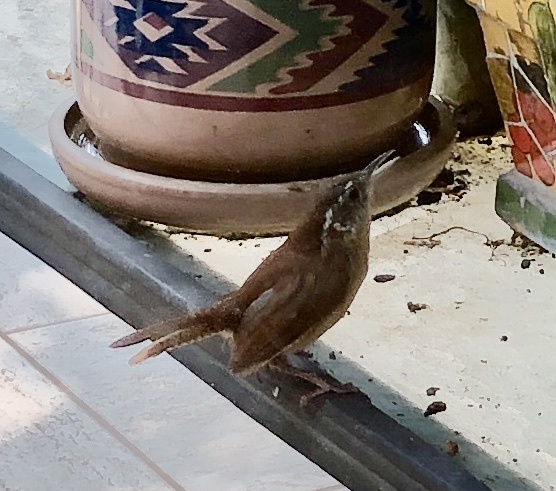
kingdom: Animalia
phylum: Chordata
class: Aves
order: Passeriformes
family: Troglodytidae
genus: Thryothorus
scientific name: Thryothorus ludovicianus
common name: Carolina wren
